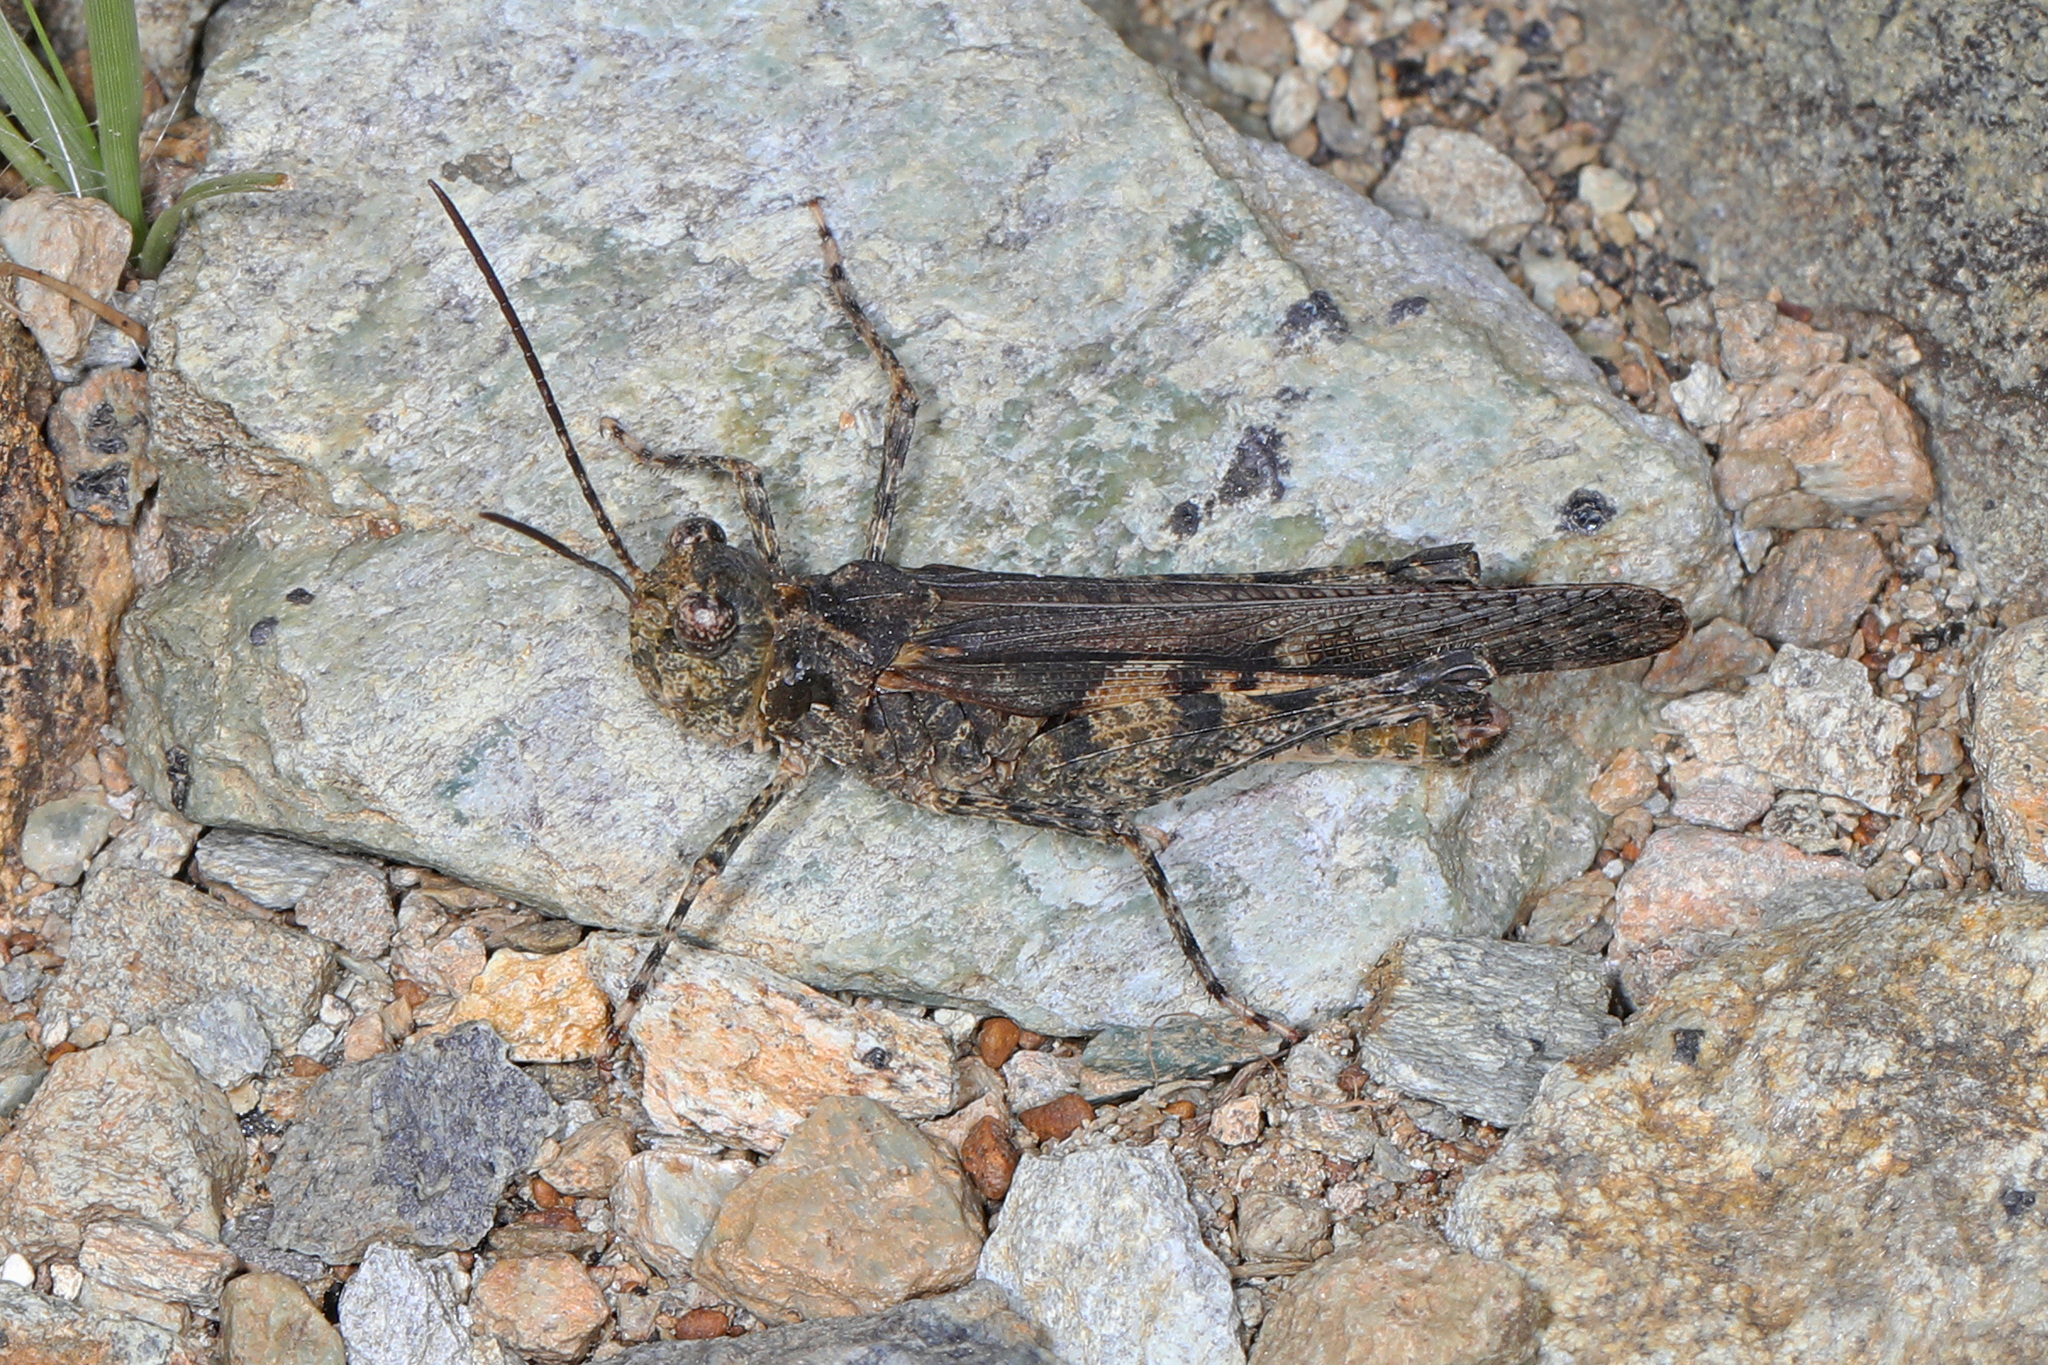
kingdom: Animalia
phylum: Arthropoda
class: Insecta
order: Orthoptera
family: Acrididae
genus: Trachyrhachys
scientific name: Trachyrhachys kiowa
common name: Kiowa grasshopper
